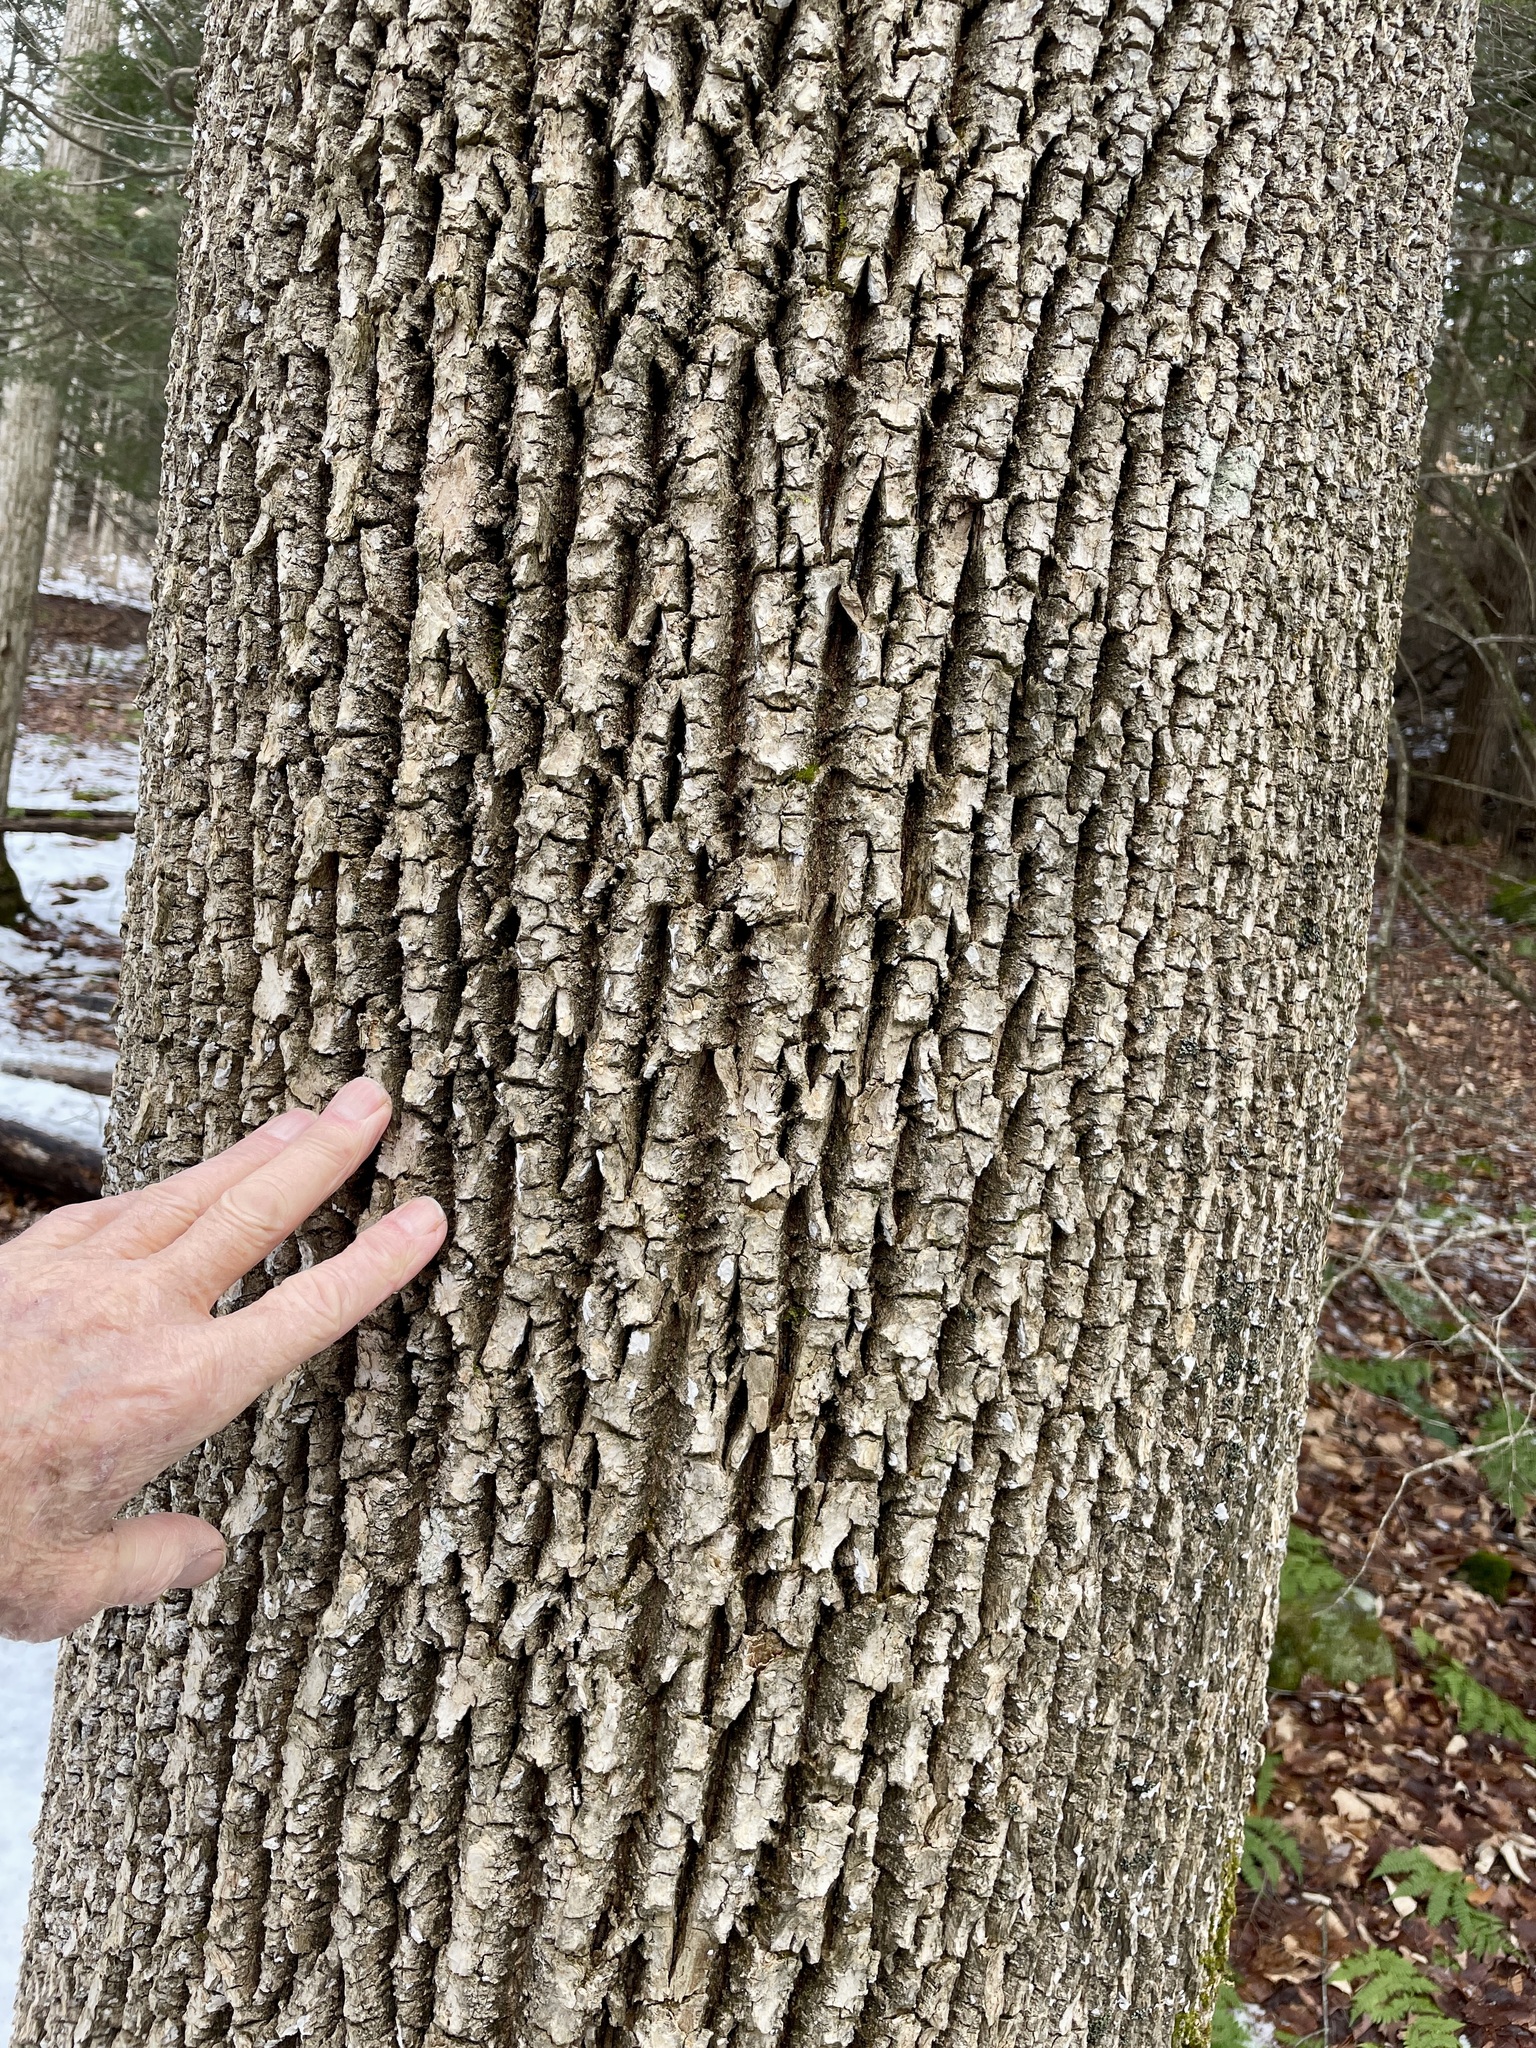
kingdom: Plantae
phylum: Tracheophyta
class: Magnoliopsida
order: Lamiales
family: Oleaceae
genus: Fraxinus
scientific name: Fraxinus americana
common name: White ash
